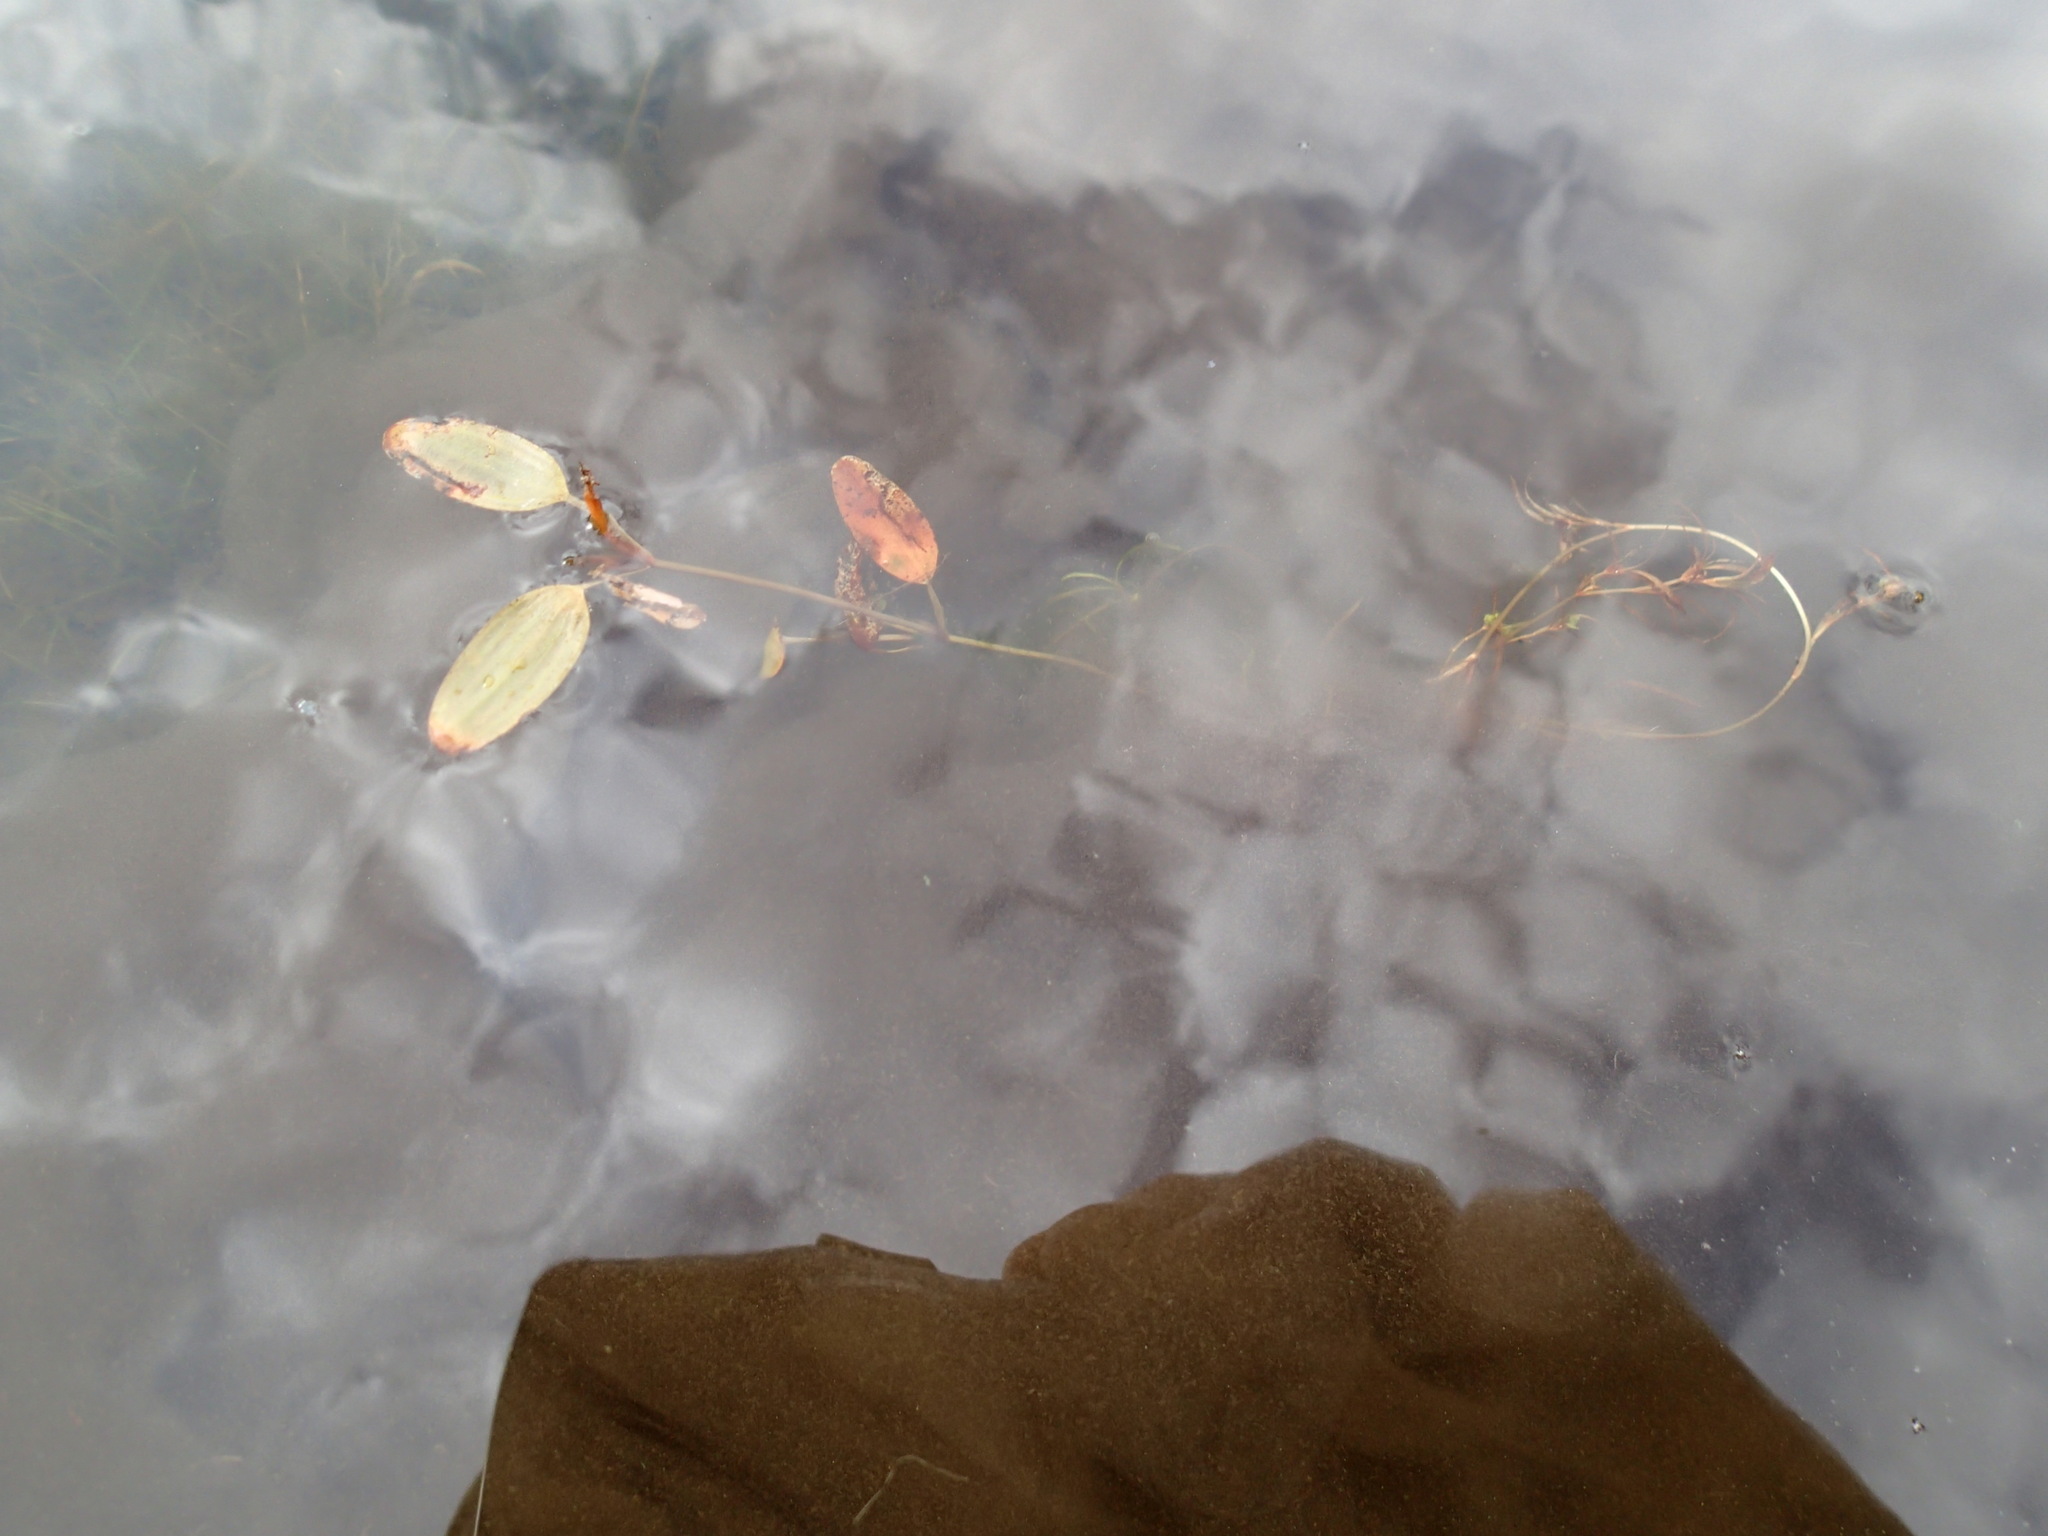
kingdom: Plantae
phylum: Tracheophyta
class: Liliopsida
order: Alismatales
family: Potamogetonaceae
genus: Potamogeton
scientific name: Potamogeton spirillus
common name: Northern snail-seed pondweed
